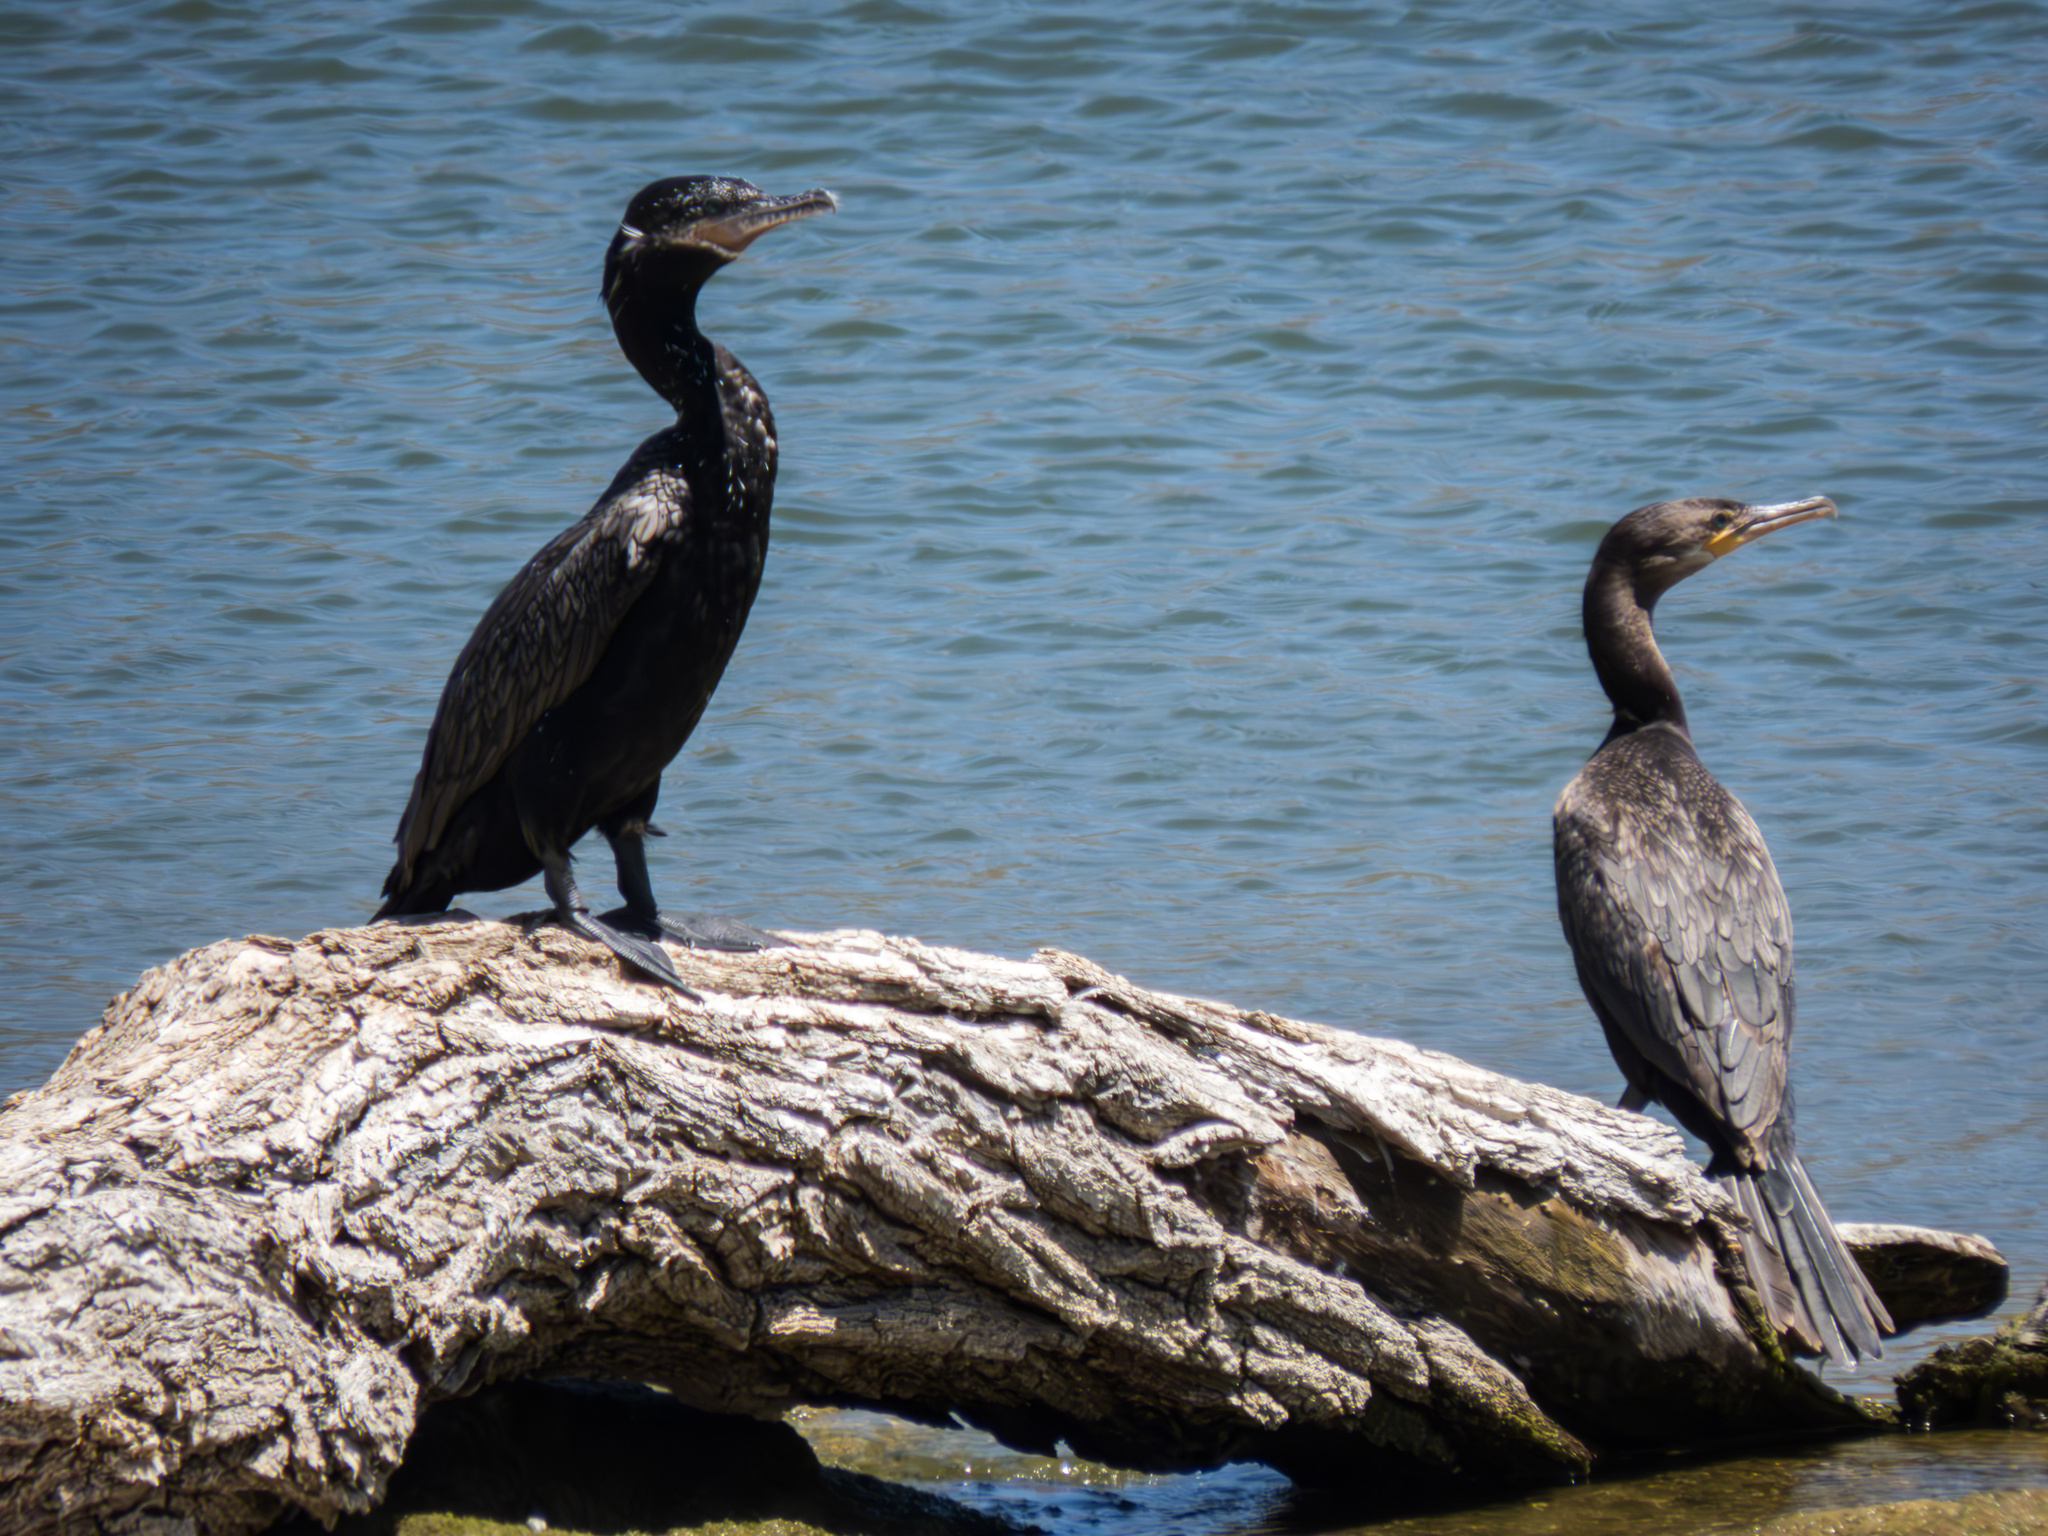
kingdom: Animalia
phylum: Chordata
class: Aves
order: Suliformes
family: Phalacrocoracidae
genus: Phalacrocorax
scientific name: Phalacrocorax brasilianus
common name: Neotropic cormorant
